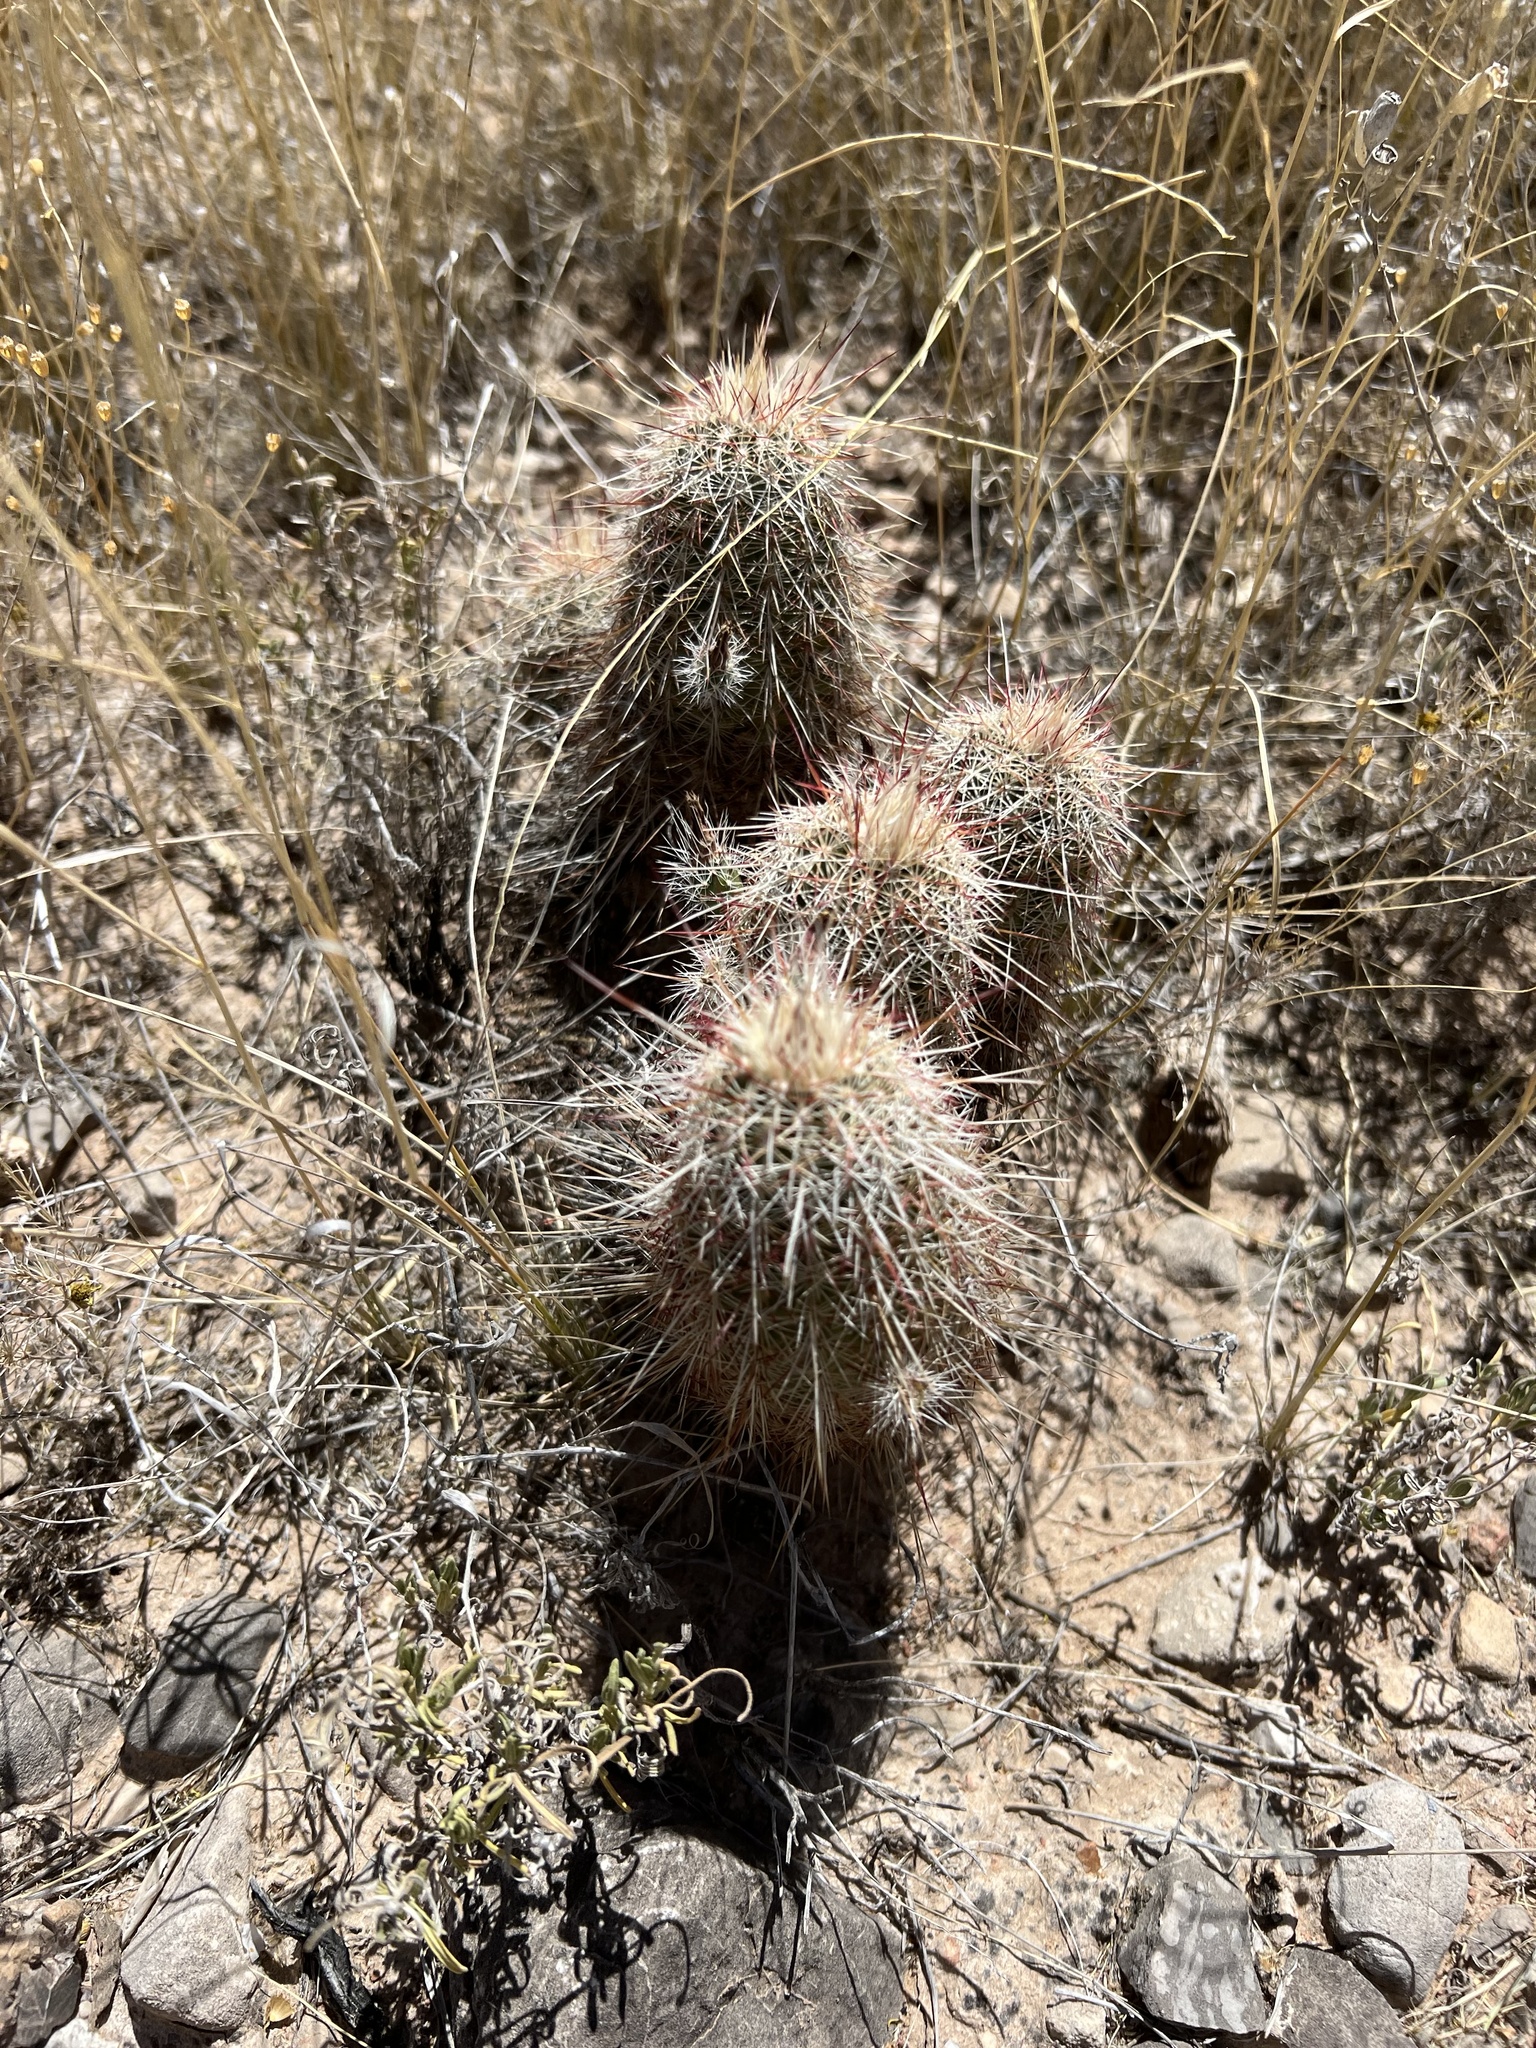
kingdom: Plantae
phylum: Tracheophyta
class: Magnoliopsida
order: Caryophyllales
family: Cactaceae
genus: Echinocereus
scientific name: Echinocereus viridiflorus
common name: Nylon hedgehog cactus
